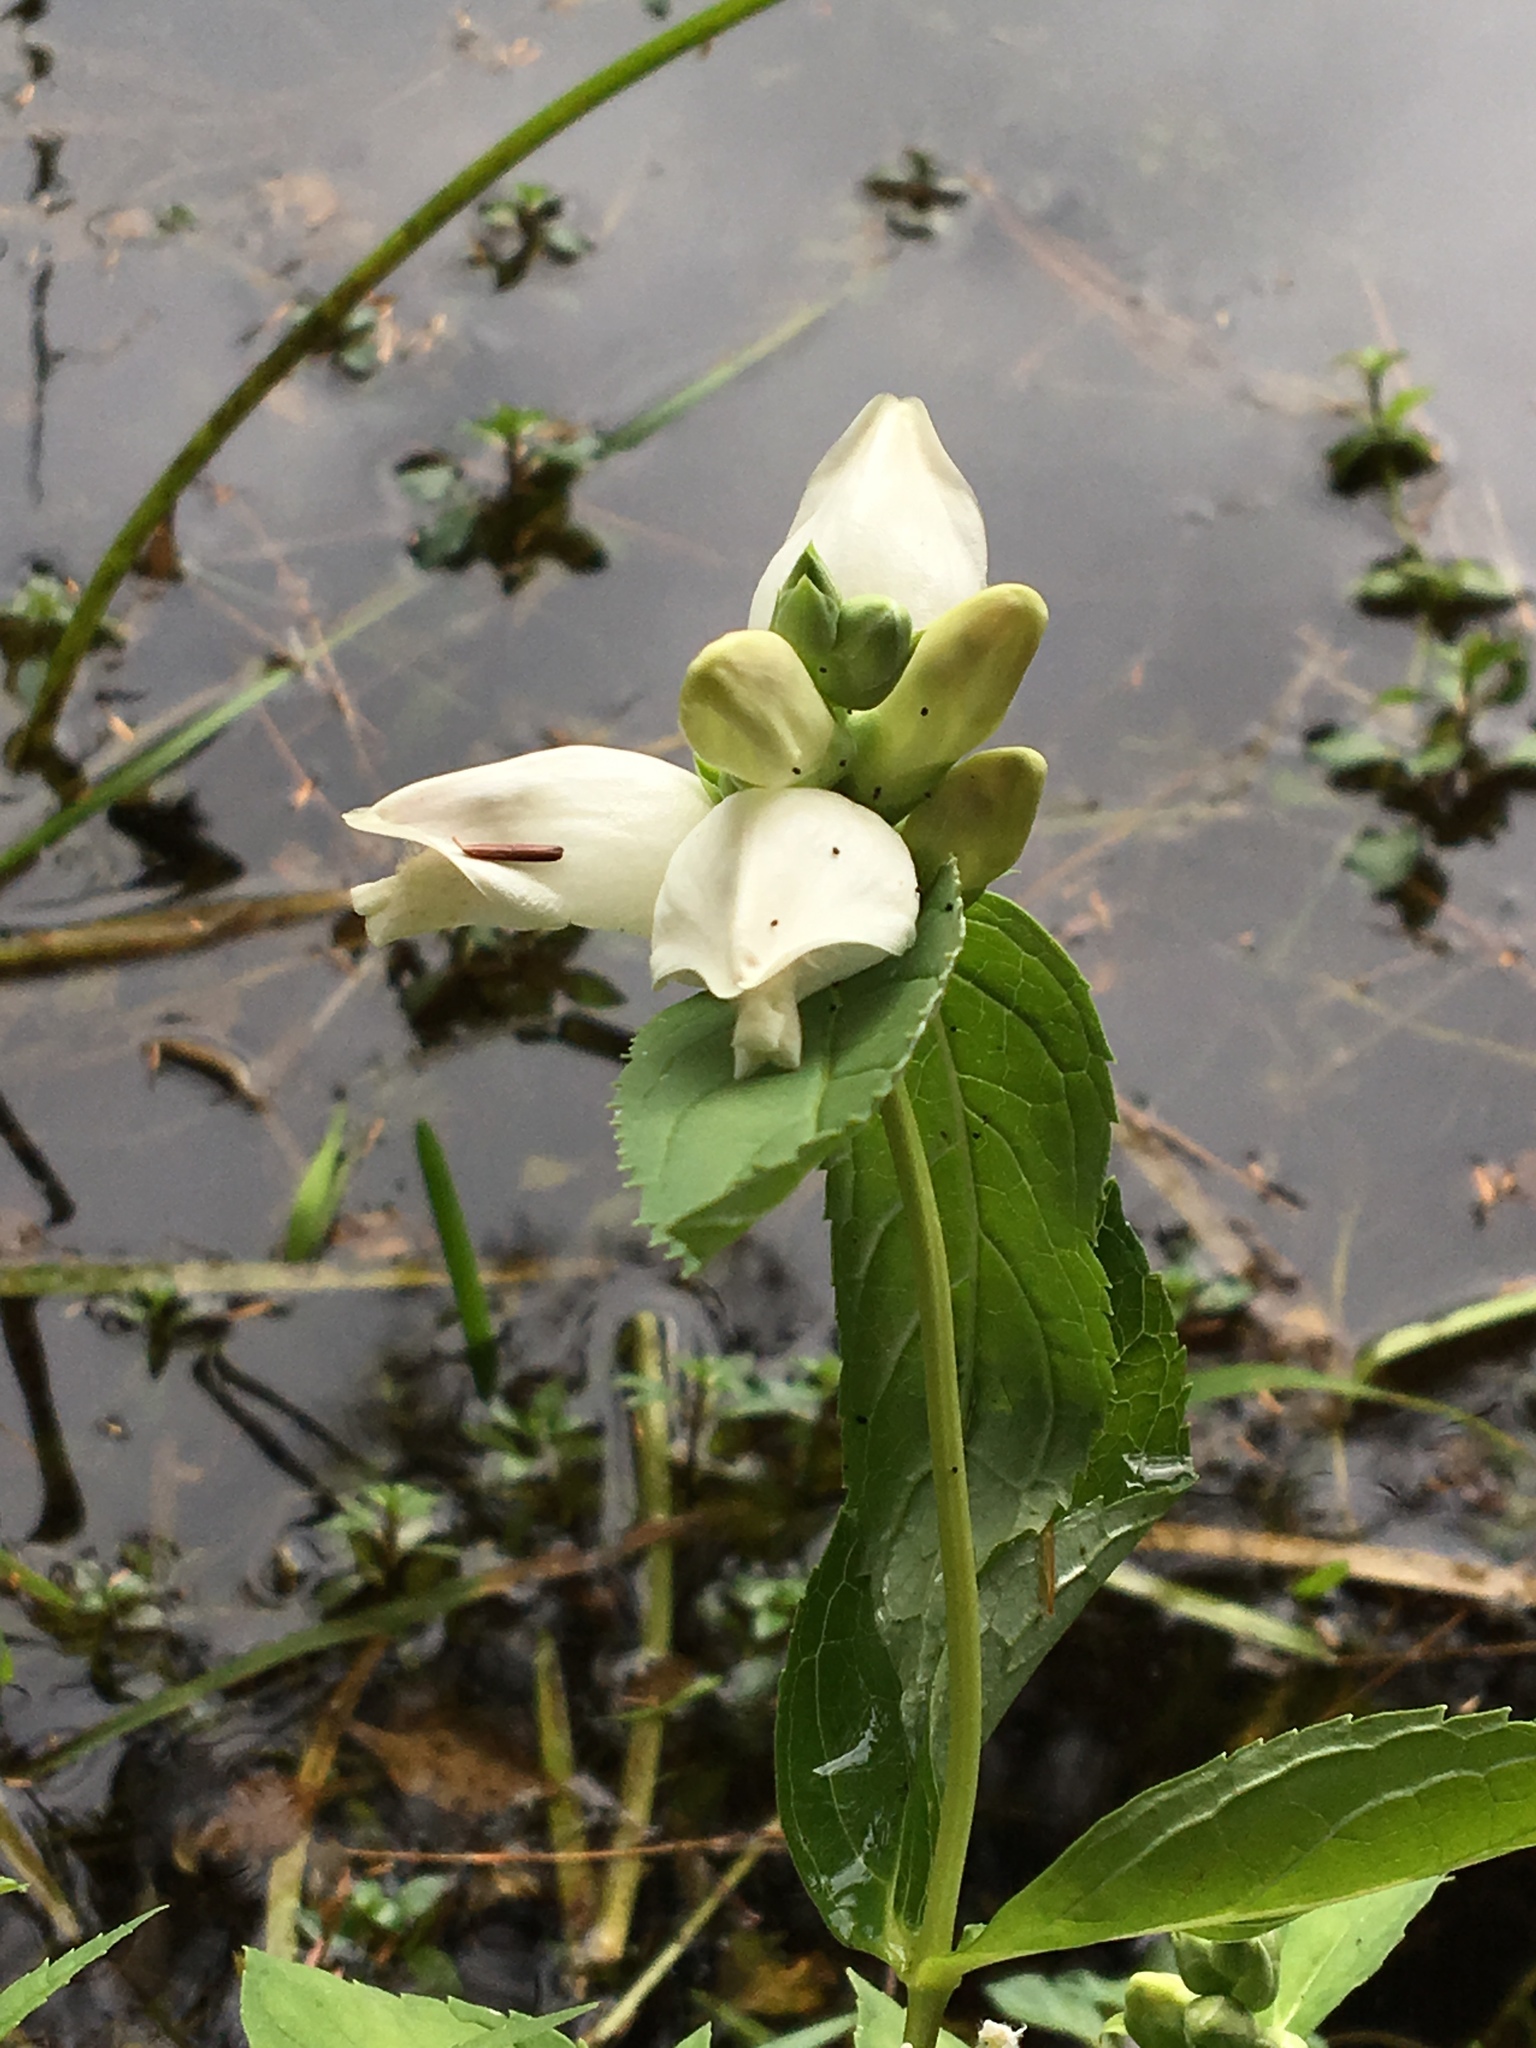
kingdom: Plantae
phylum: Tracheophyta
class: Magnoliopsida
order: Lamiales
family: Plantaginaceae
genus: Chelone
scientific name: Chelone glabra
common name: Snakehead
